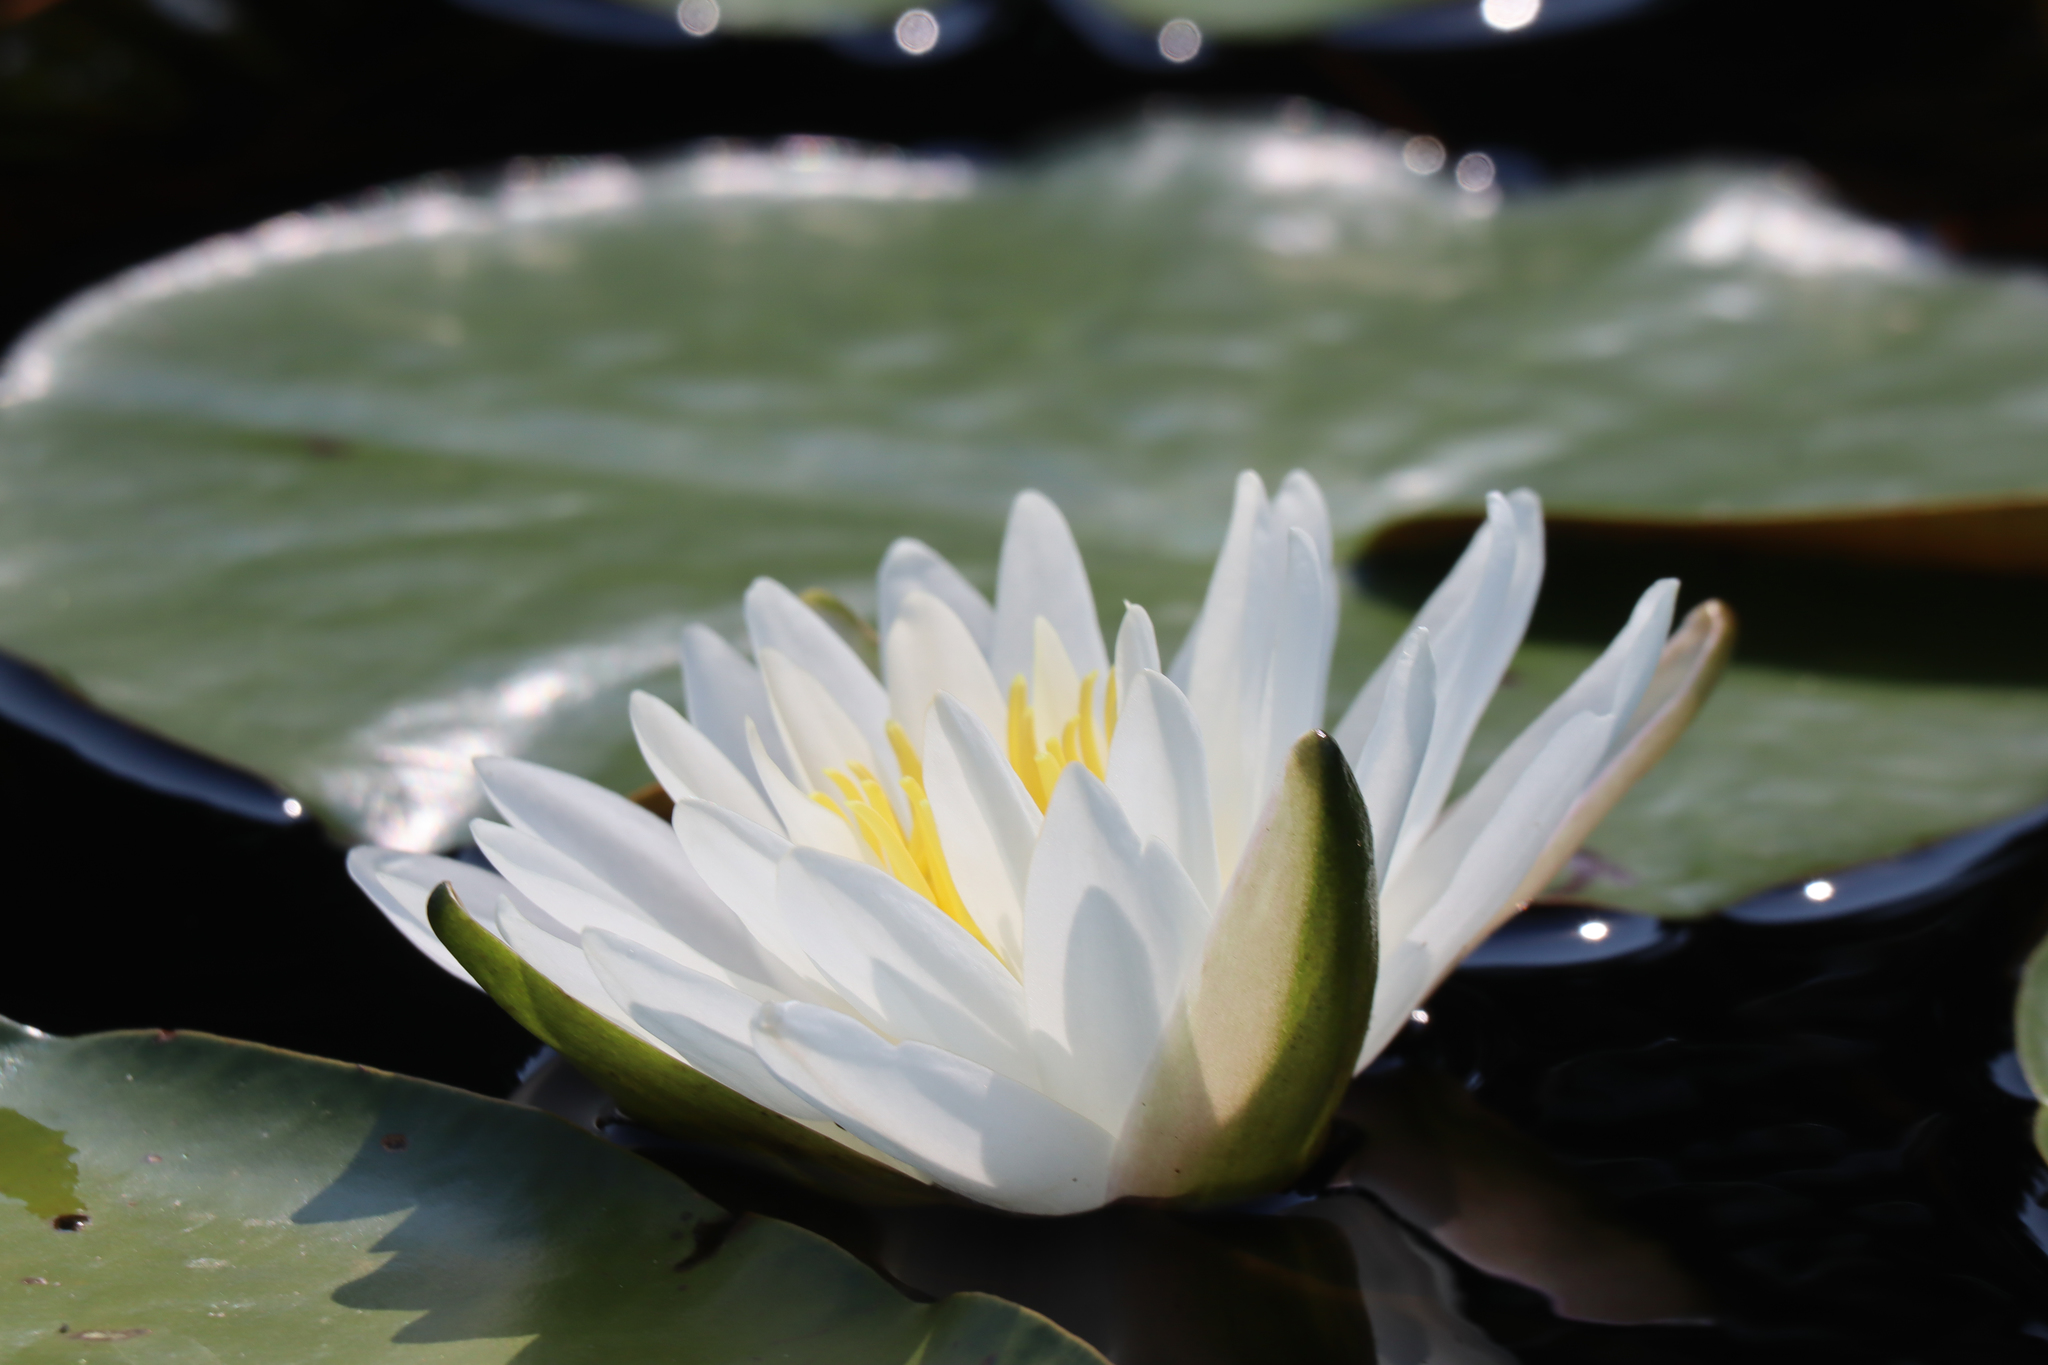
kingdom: Plantae
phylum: Tracheophyta
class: Magnoliopsida
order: Nymphaeales
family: Nymphaeaceae
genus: Nymphaea
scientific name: Nymphaea odorata
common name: Fragrant water-lily
